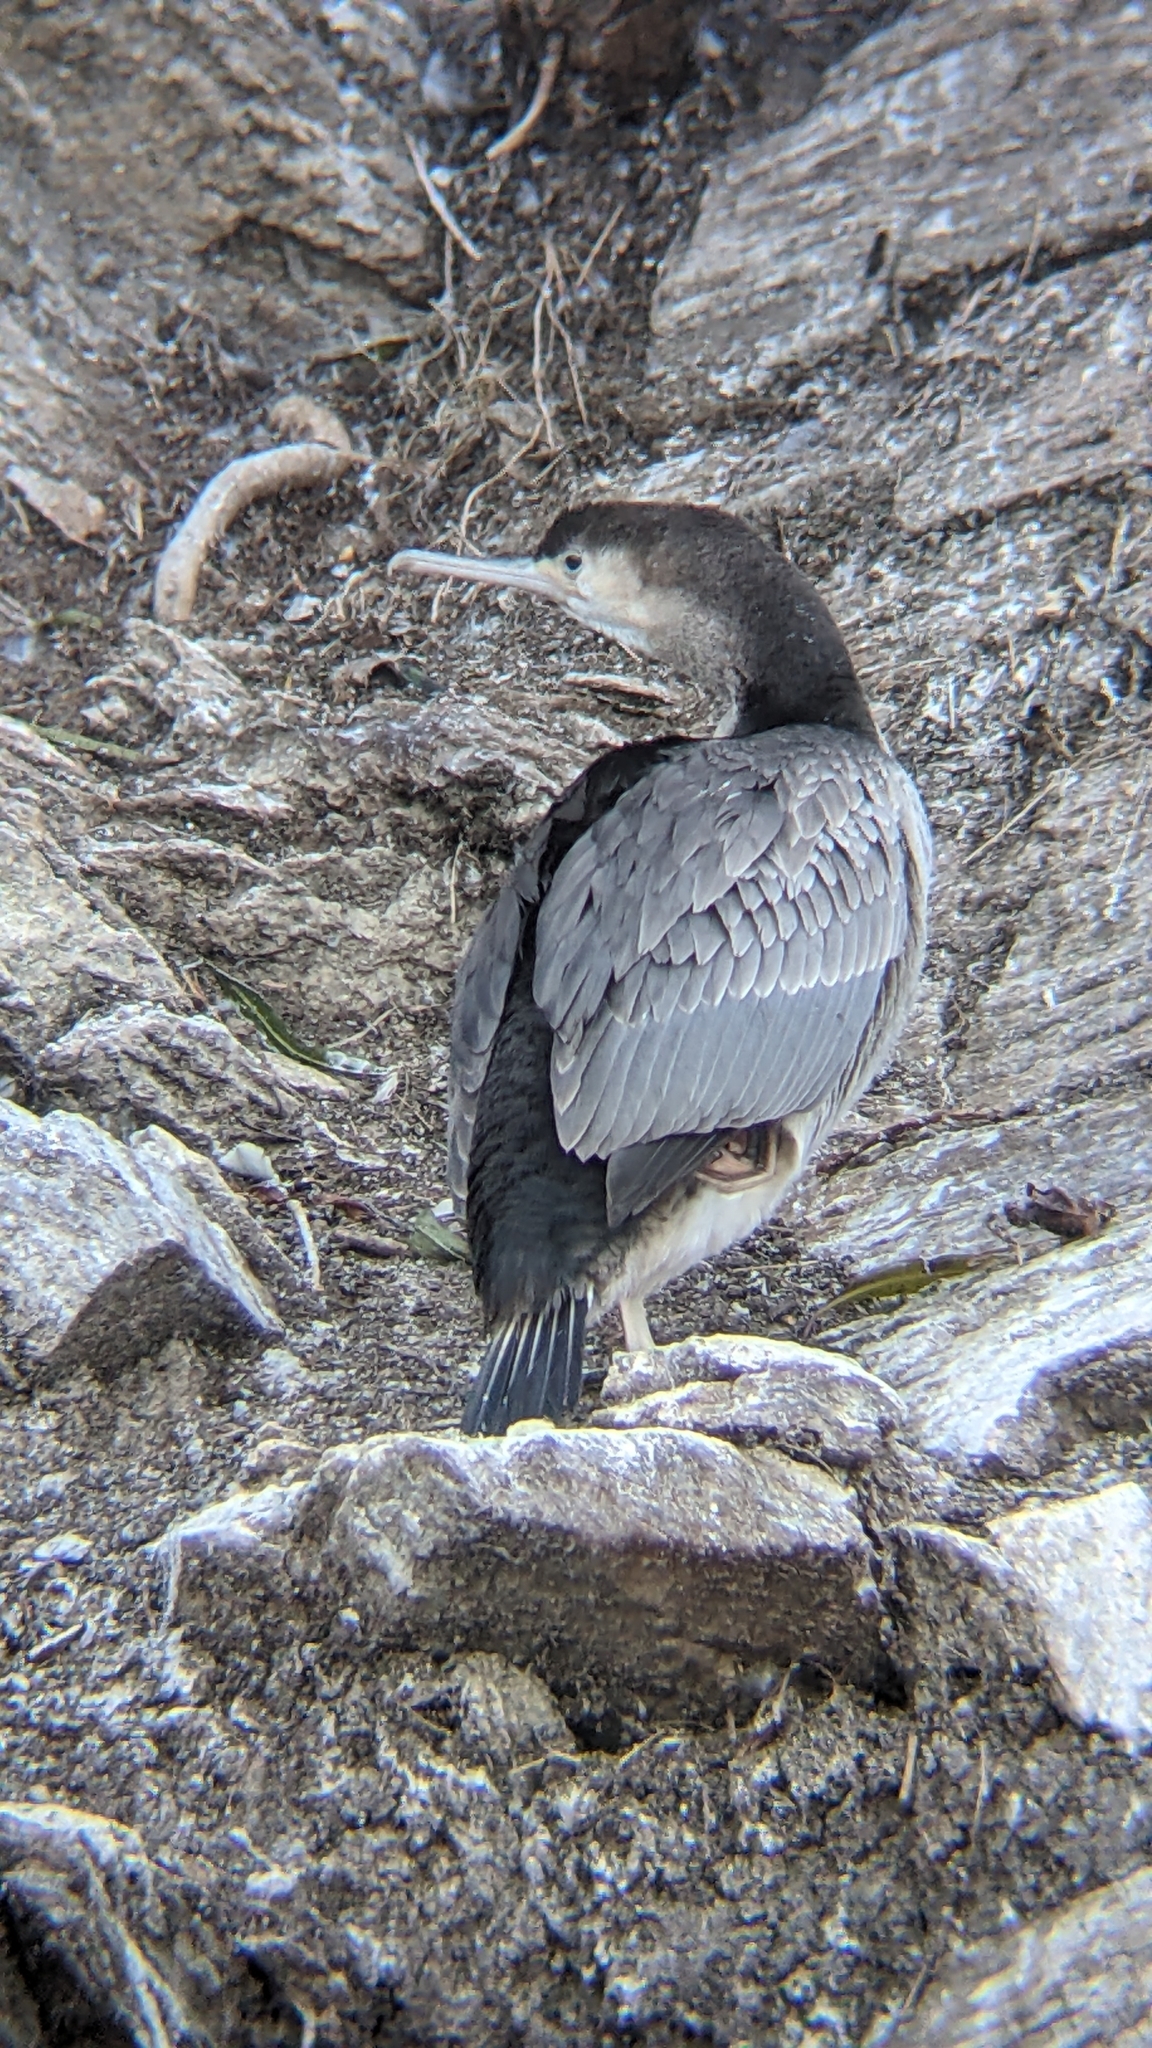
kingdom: Animalia
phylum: Chordata
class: Aves
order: Suliformes
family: Phalacrocoracidae
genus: Phalacrocorax
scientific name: Phalacrocorax punctatus
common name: Spotted shag
